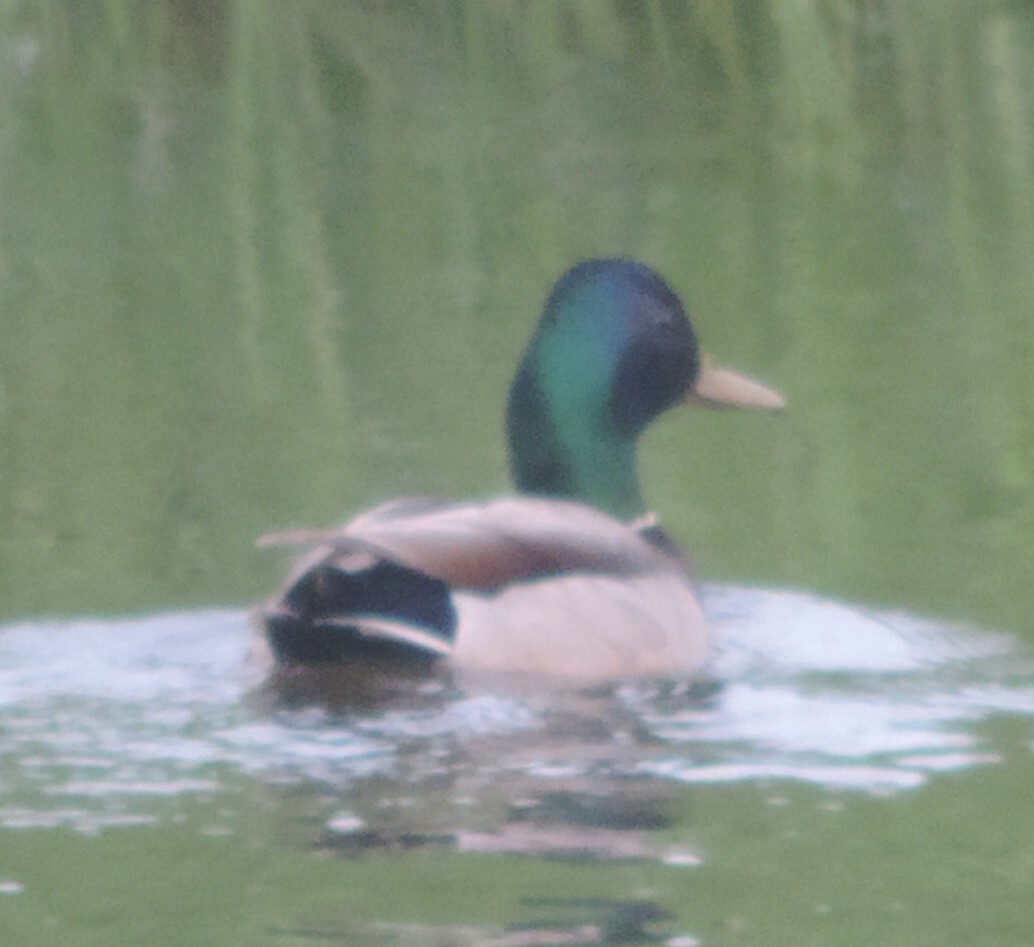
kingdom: Animalia
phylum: Chordata
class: Aves
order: Anseriformes
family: Anatidae
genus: Anas
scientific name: Anas platyrhynchos
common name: Mallard
